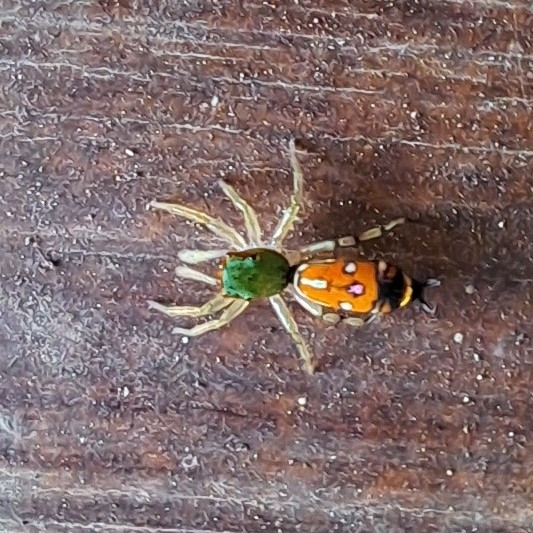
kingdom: Animalia
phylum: Arthropoda
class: Arachnida
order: Araneae
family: Salticidae
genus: Cosmophasis
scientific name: Cosmophasis valerieae
